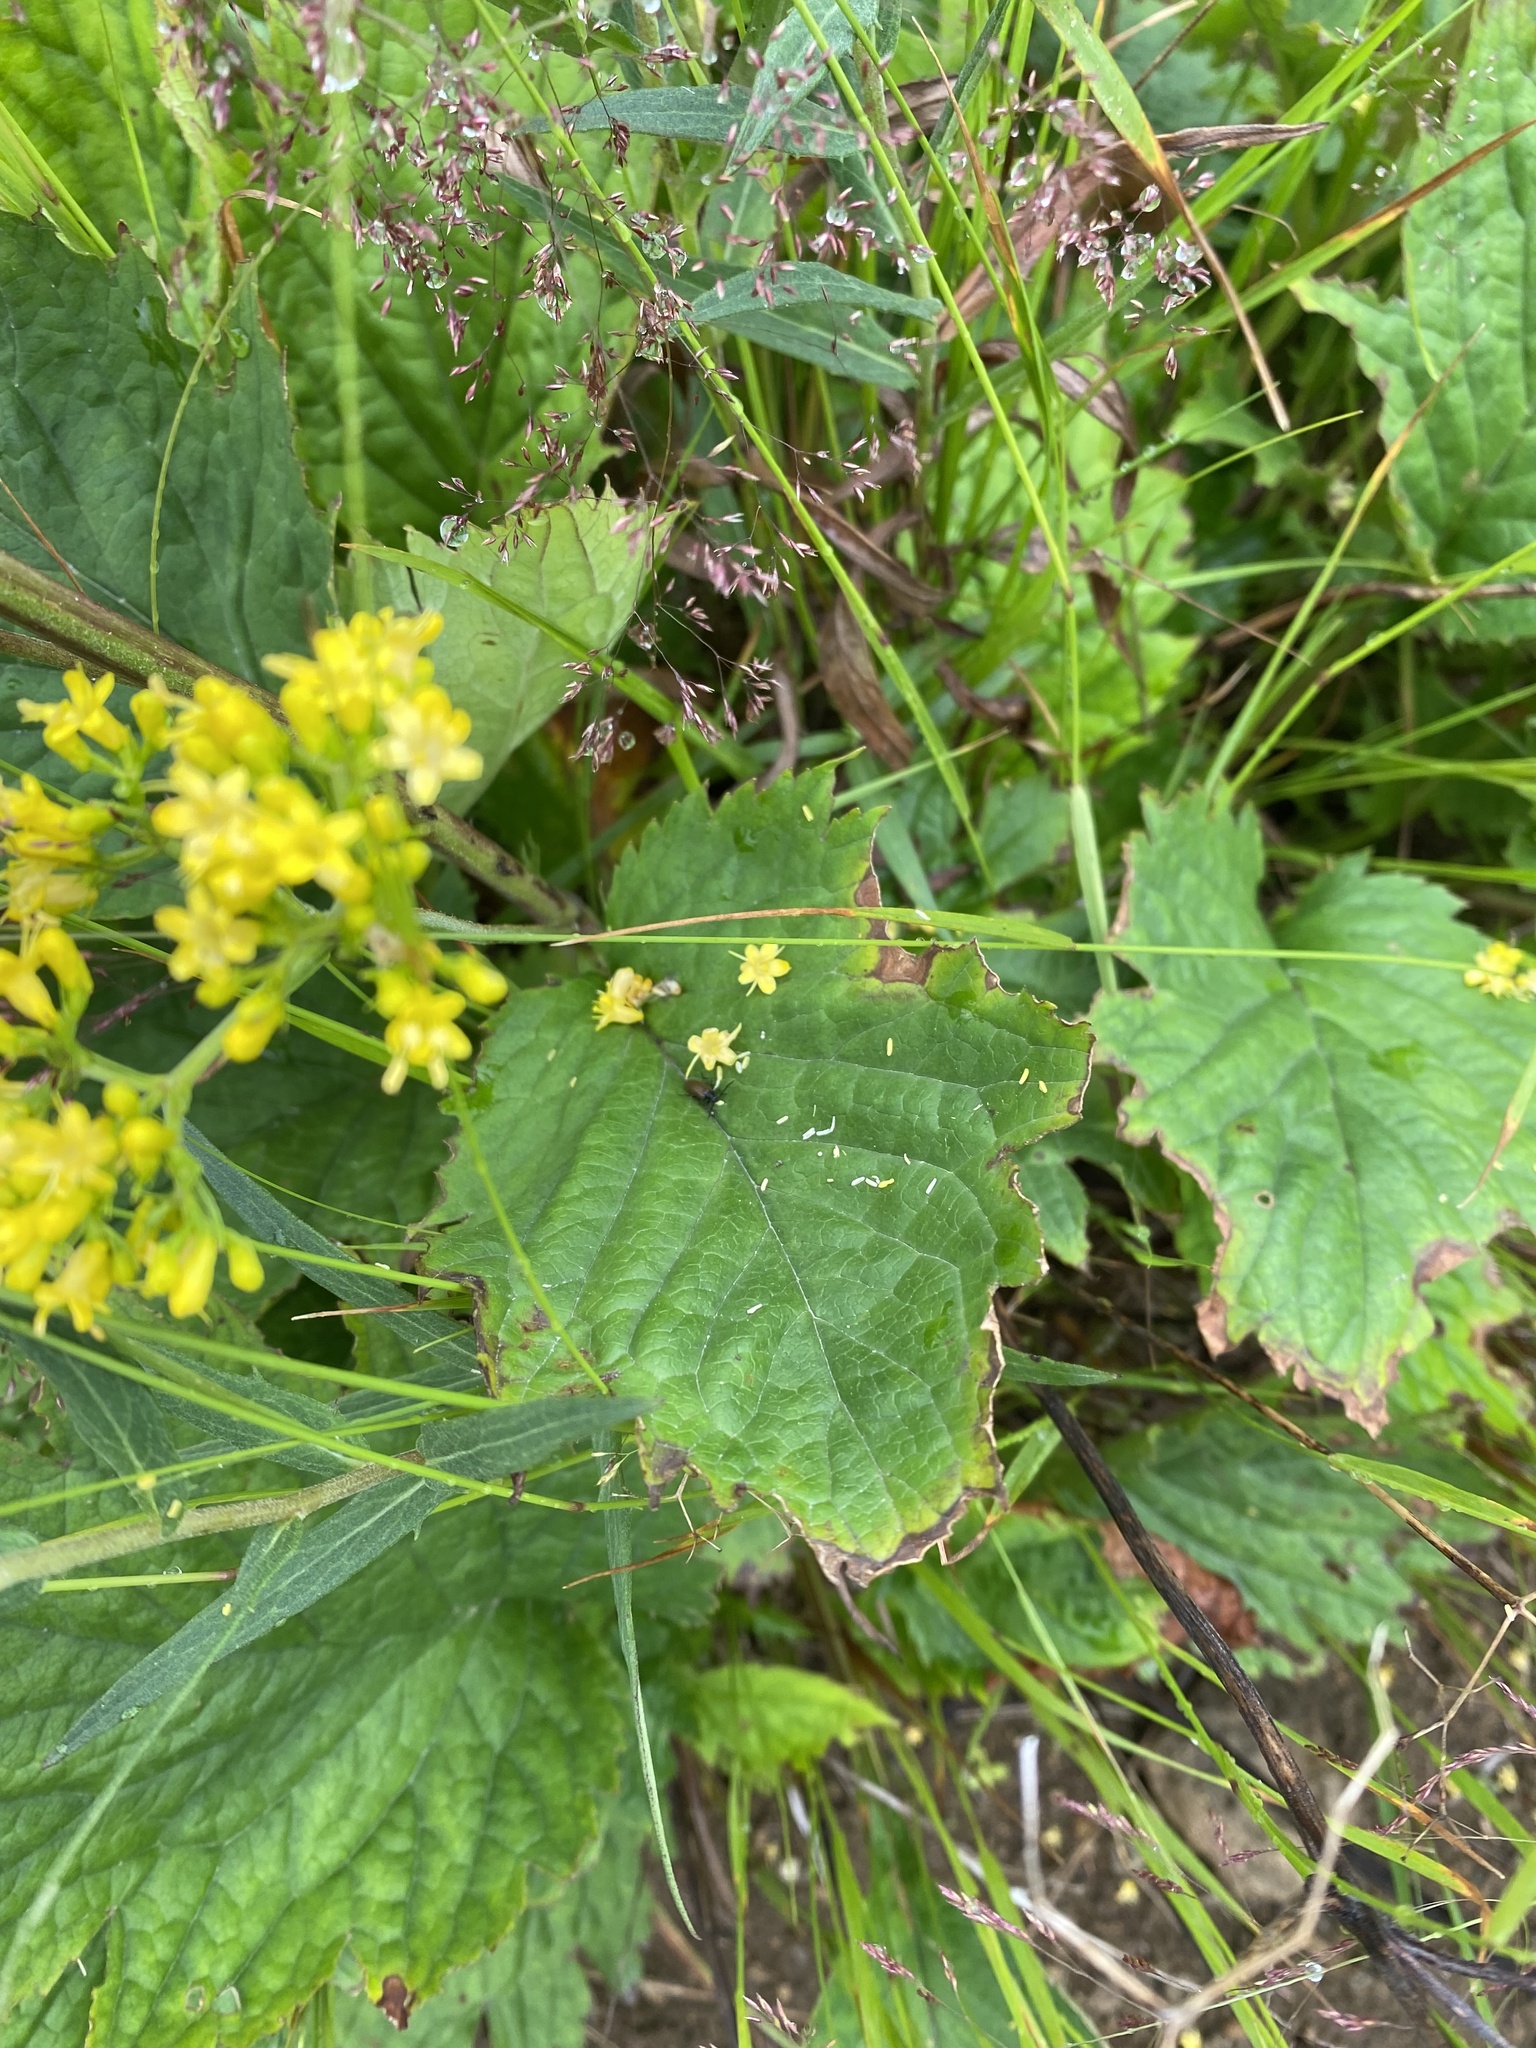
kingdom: Plantae
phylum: Tracheophyta
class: Magnoliopsida
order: Dipsacales
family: Caprifoliaceae
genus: Patrinia
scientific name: Patrinia gibbosa
